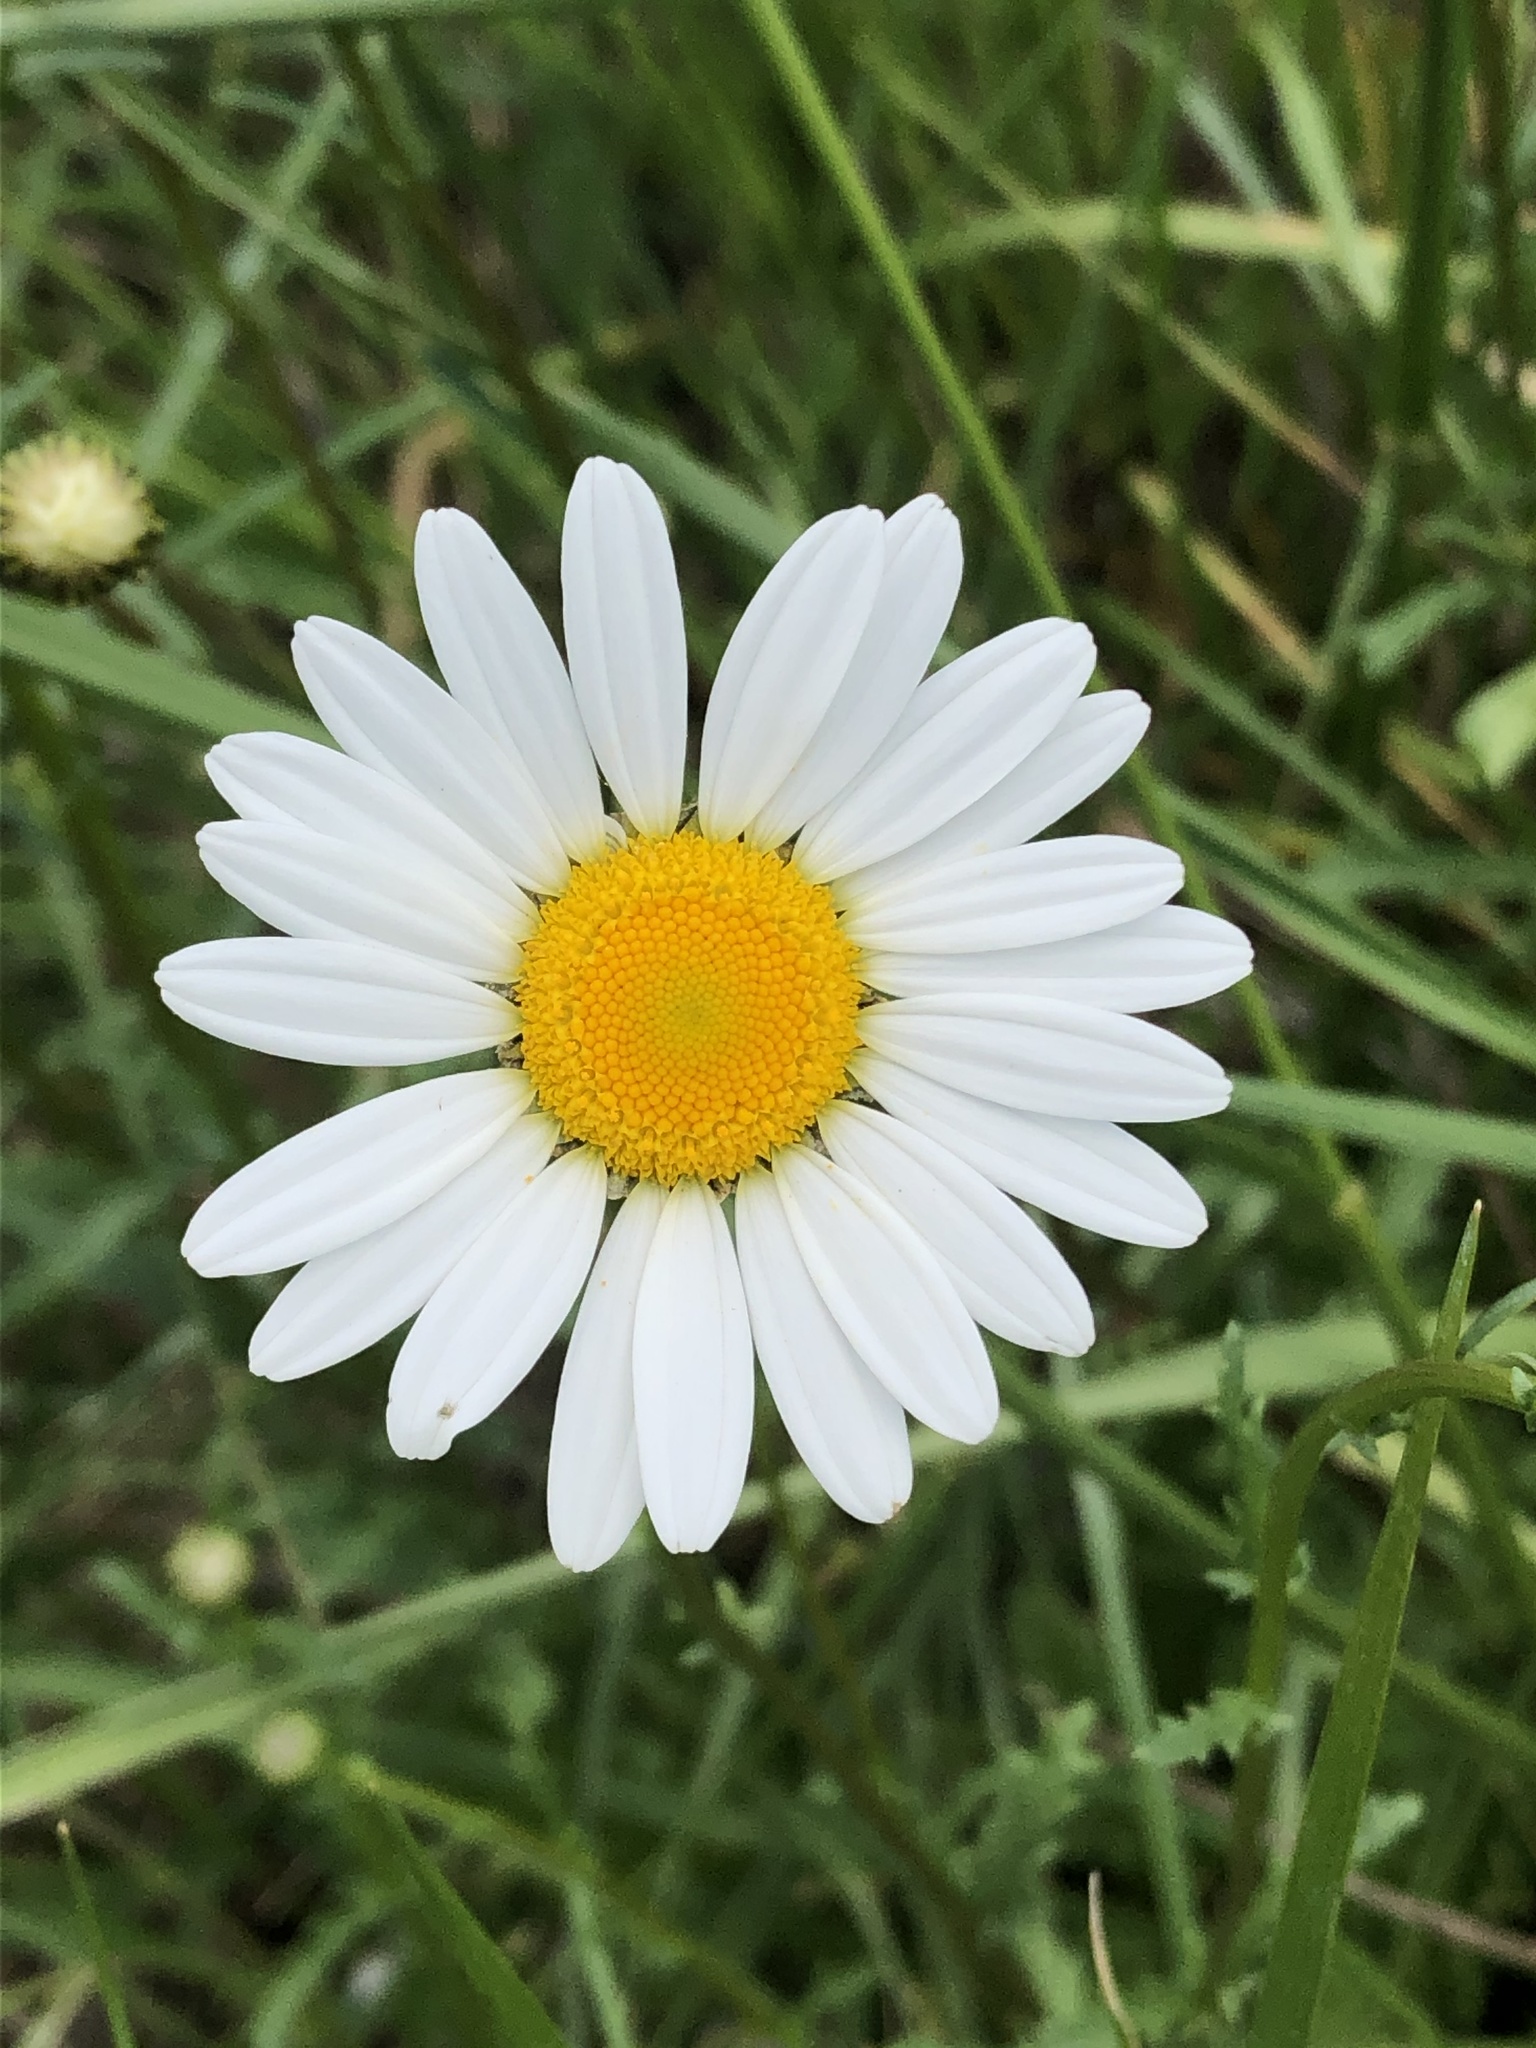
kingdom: Plantae
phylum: Tracheophyta
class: Magnoliopsida
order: Asterales
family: Asteraceae
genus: Leucanthemum
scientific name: Leucanthemum vulgare
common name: Oxeye daisy
